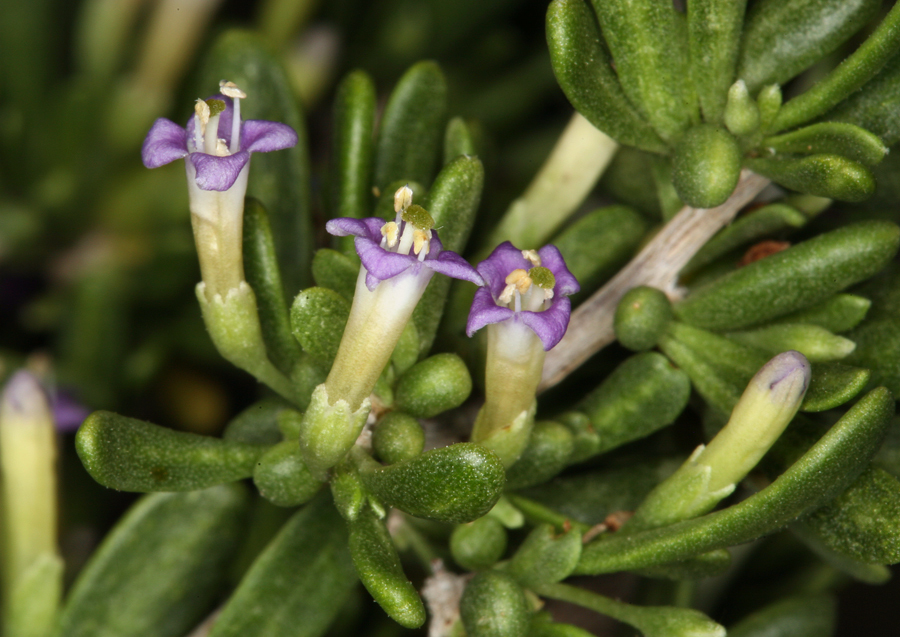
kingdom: Plantae
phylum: Tracheophyta
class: Magnoliopsida
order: Solanales
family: Solanaceae
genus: Lycium
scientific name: Lycium andersonii
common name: Water-jacket
